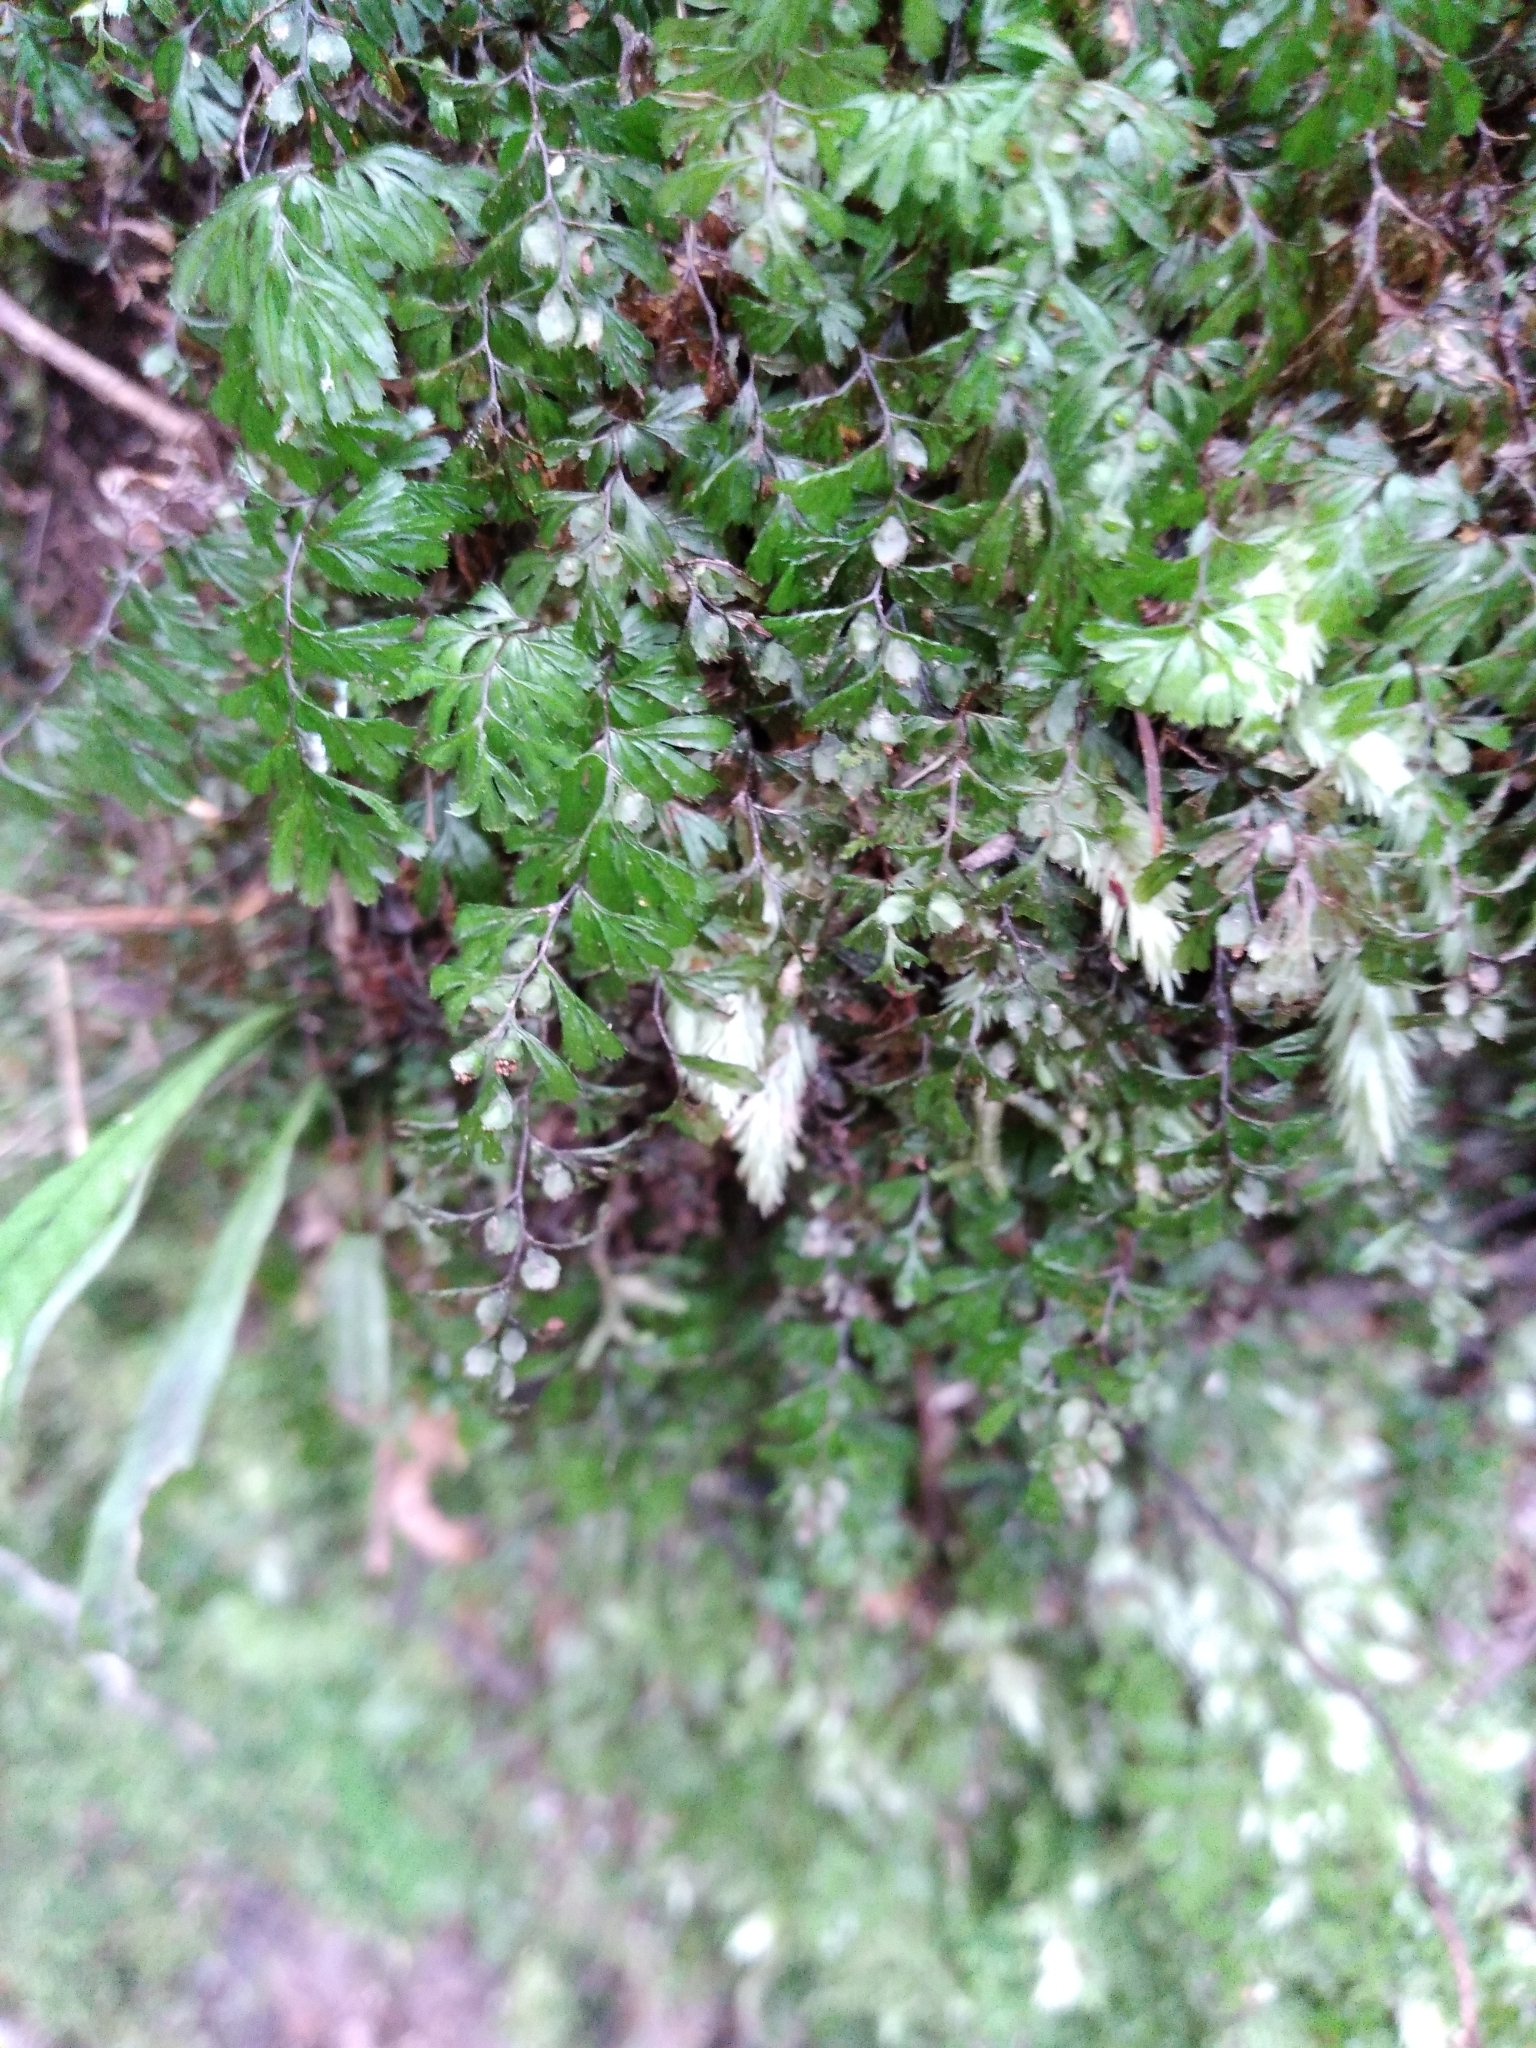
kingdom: Plantae
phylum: Tracheophyta
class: Polypodiopsida
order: Hymenophyllales
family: Hymenophyllaceae
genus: Hymenophyllum
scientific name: Hymenophyllum revolutum
